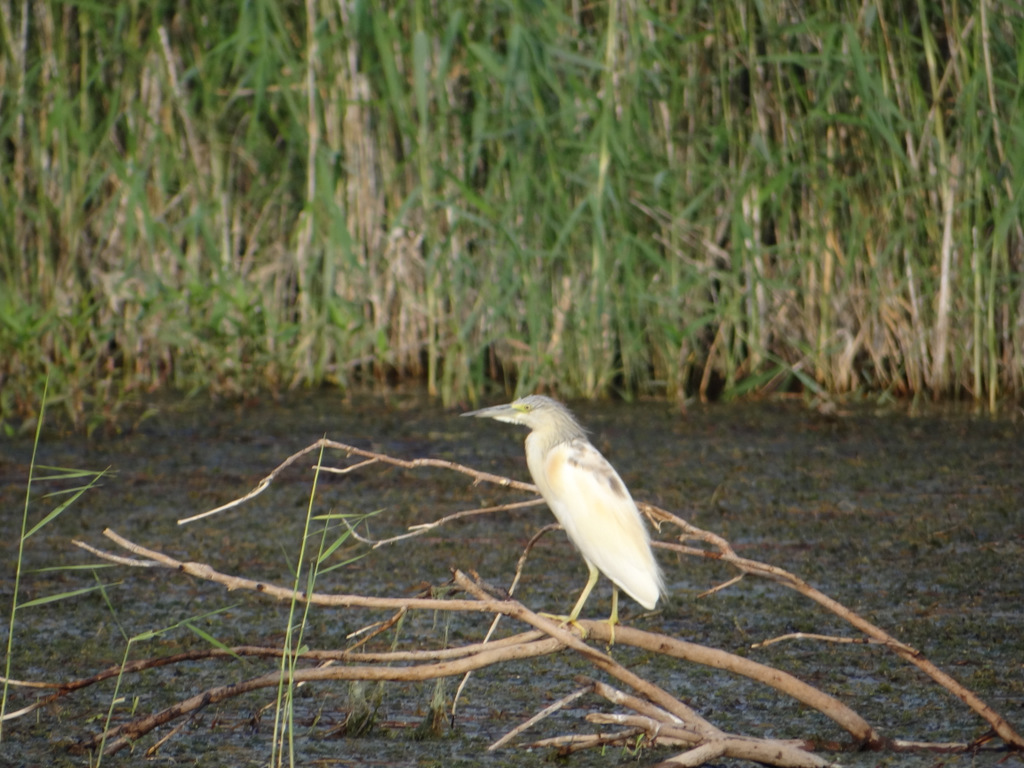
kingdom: Animalia
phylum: Chordata
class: Aves
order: Pelecaniformes
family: Ardeidae
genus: Ardeola
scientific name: Ardeola ralloides
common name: Squacco heron
